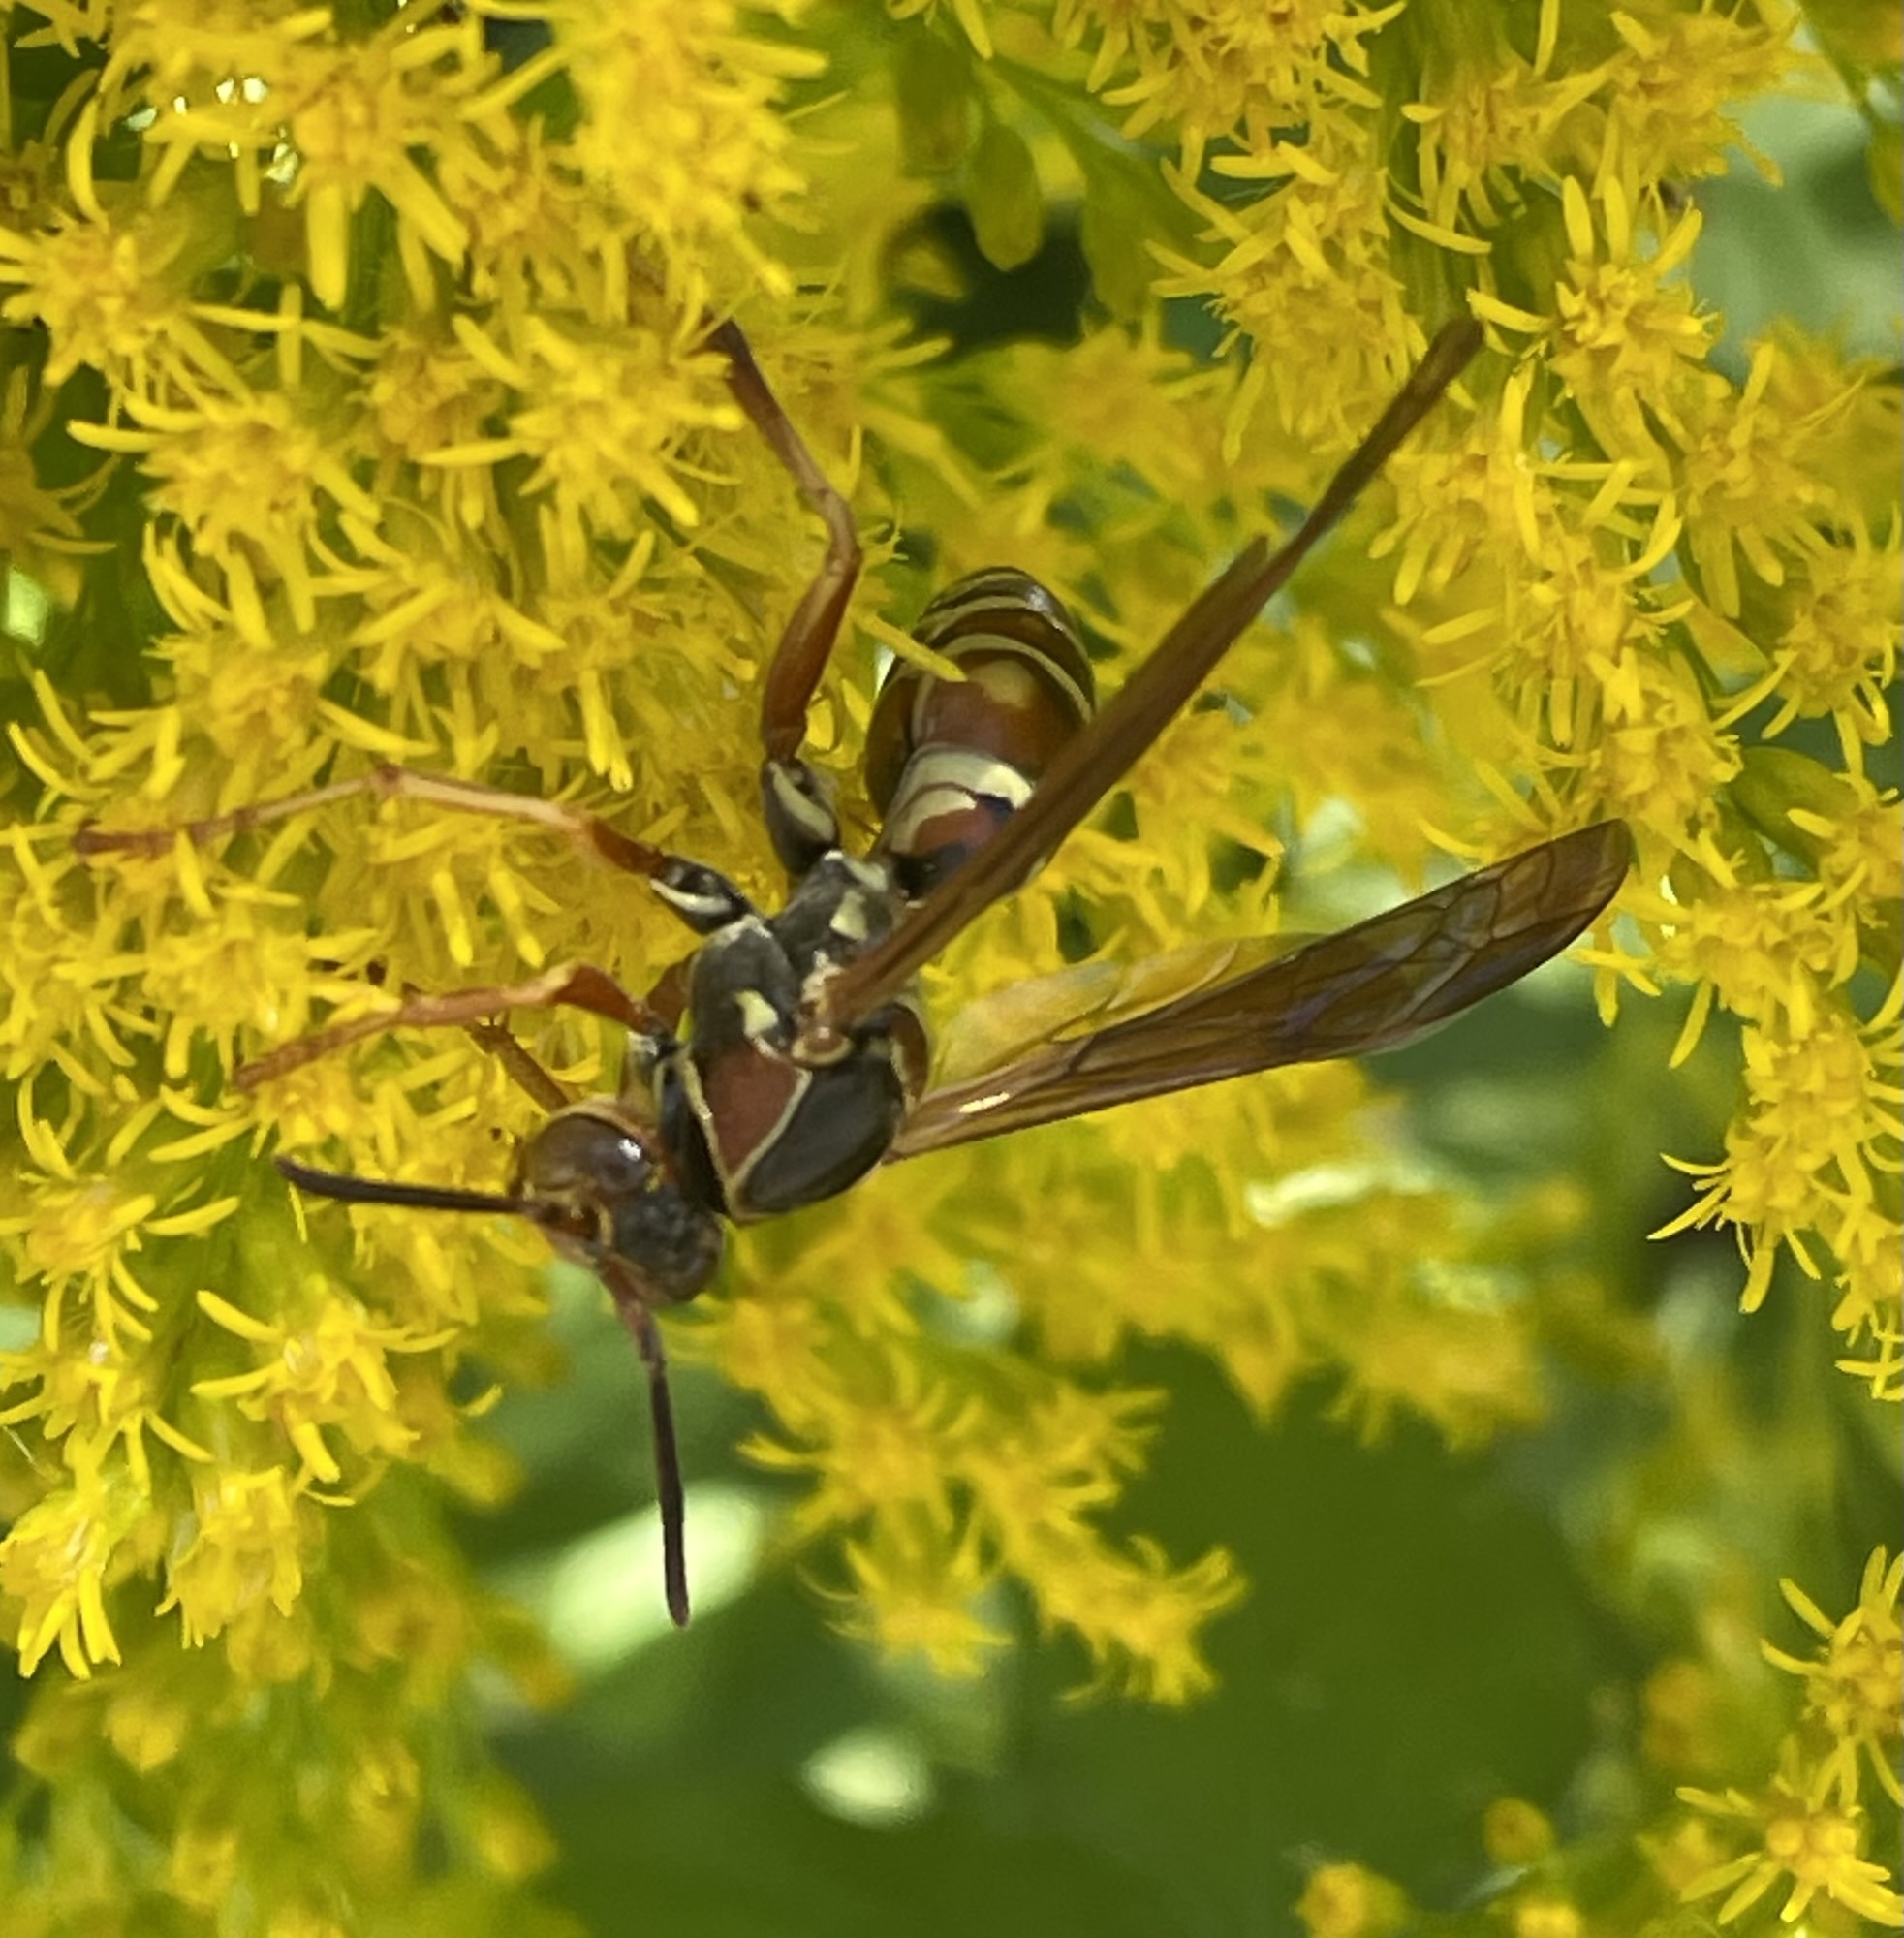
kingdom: Animalia
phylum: Arthropoda
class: Insecta
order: Hymenoptera
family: Eumenidae
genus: Polistes
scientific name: Polistes fuscatus
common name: Dark paper wasp
